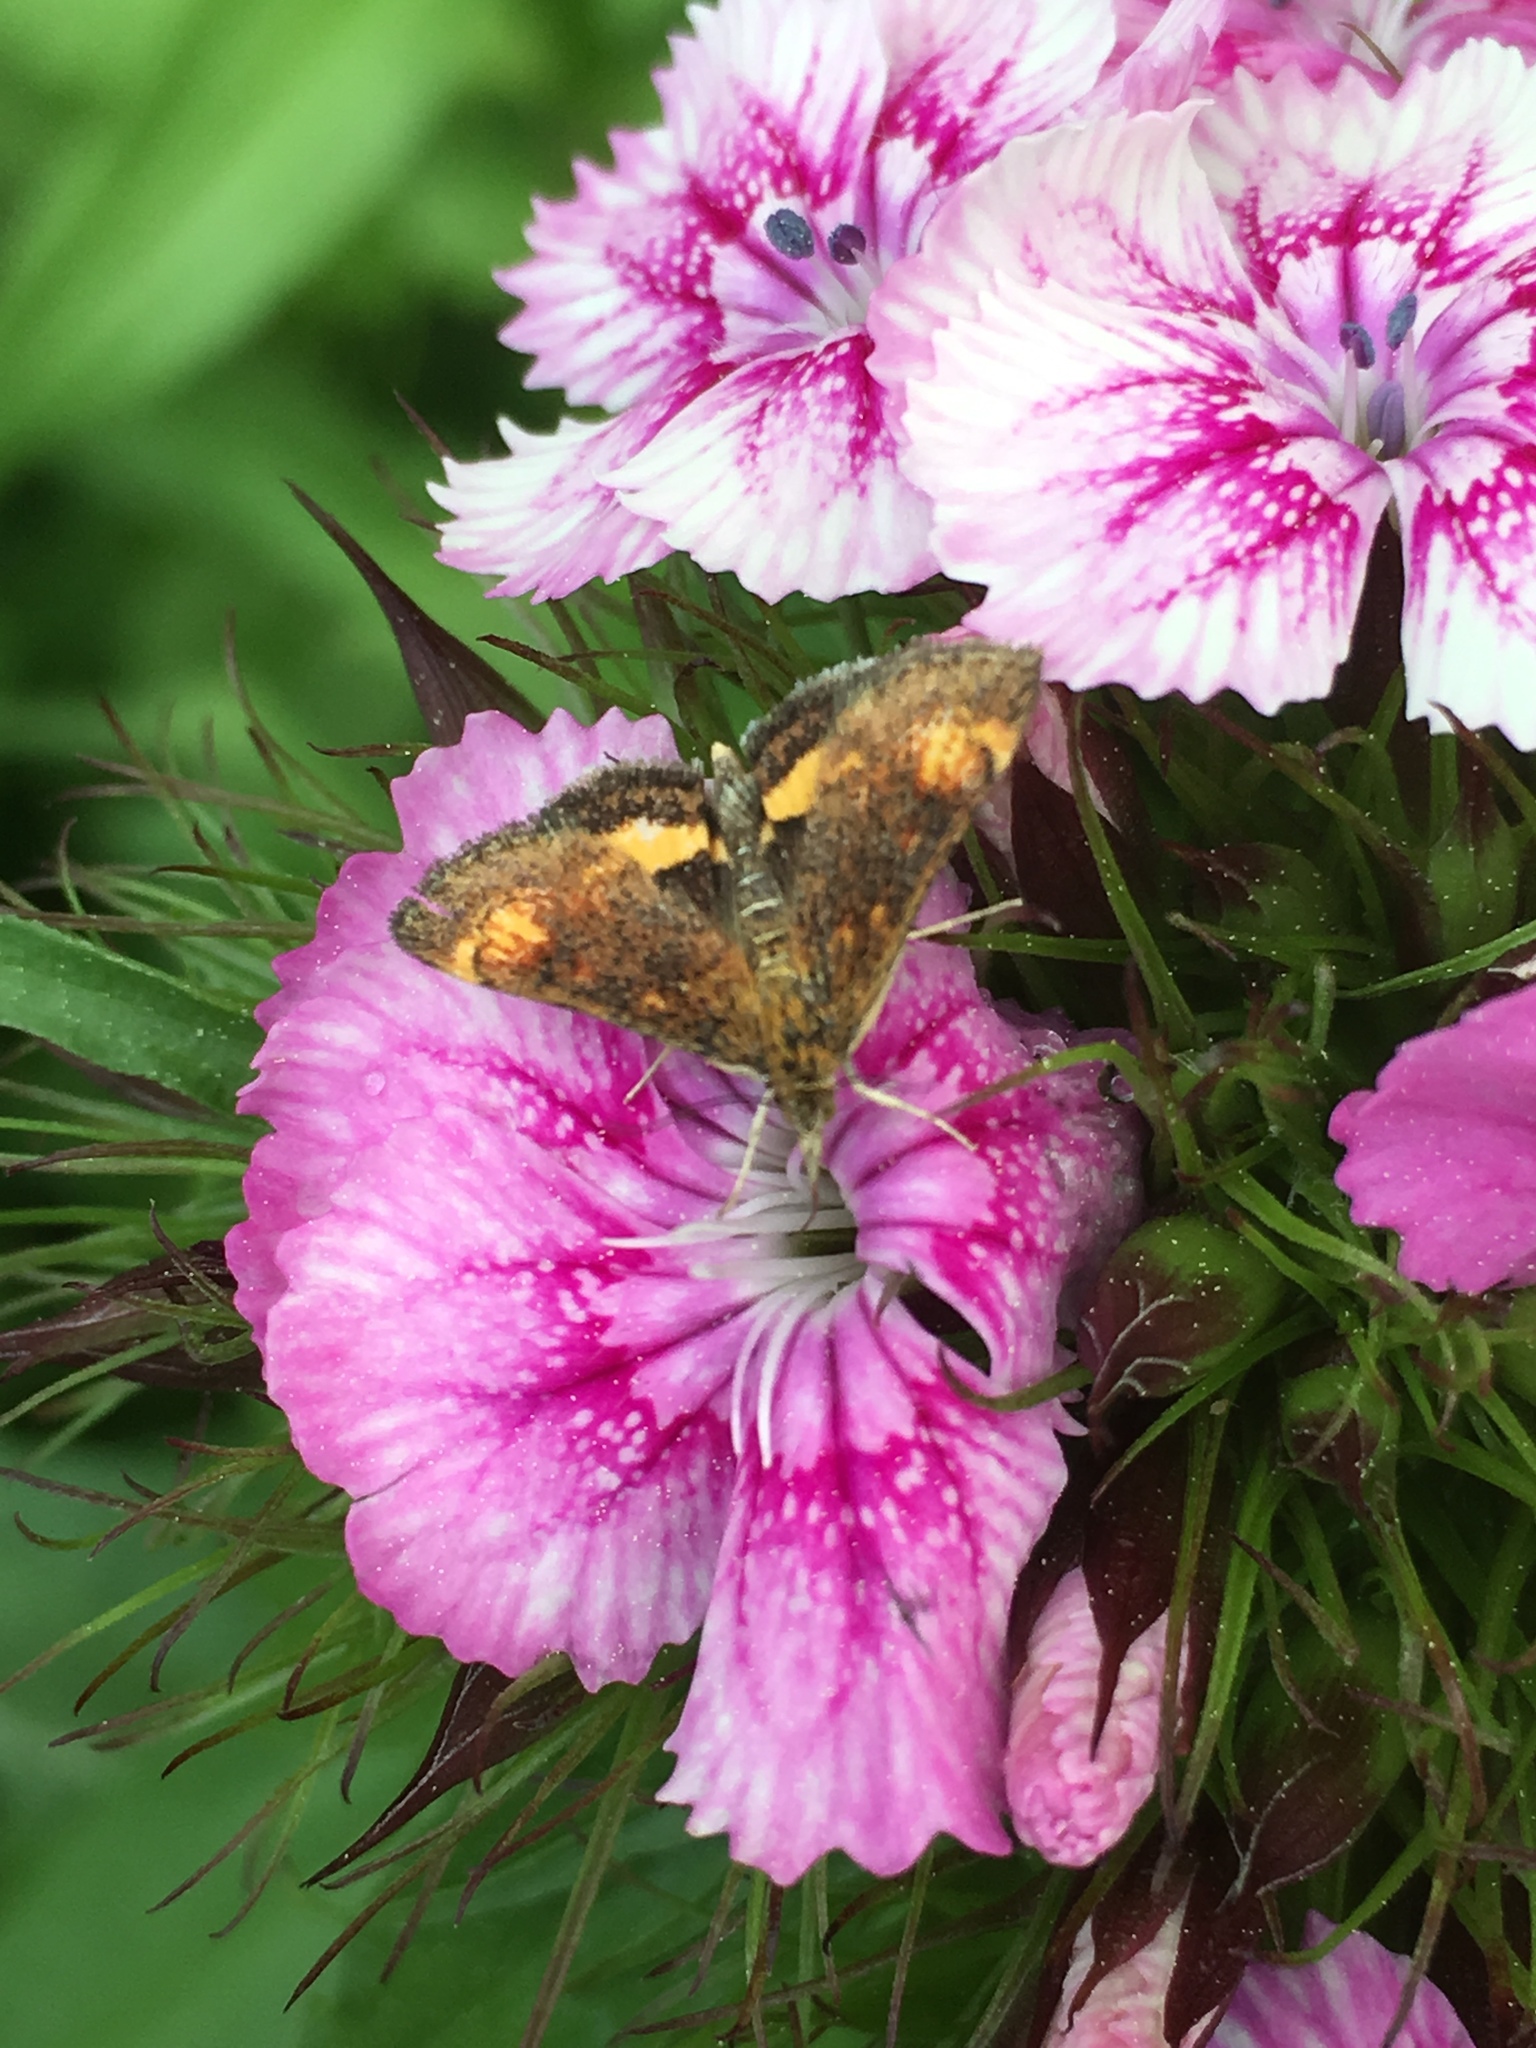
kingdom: Animalia
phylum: Arthropoda
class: Insecta
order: Lepidoptera
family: Crambidae
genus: Pyrausta
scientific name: Pyrausta orphisalis
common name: Orange mint moth
